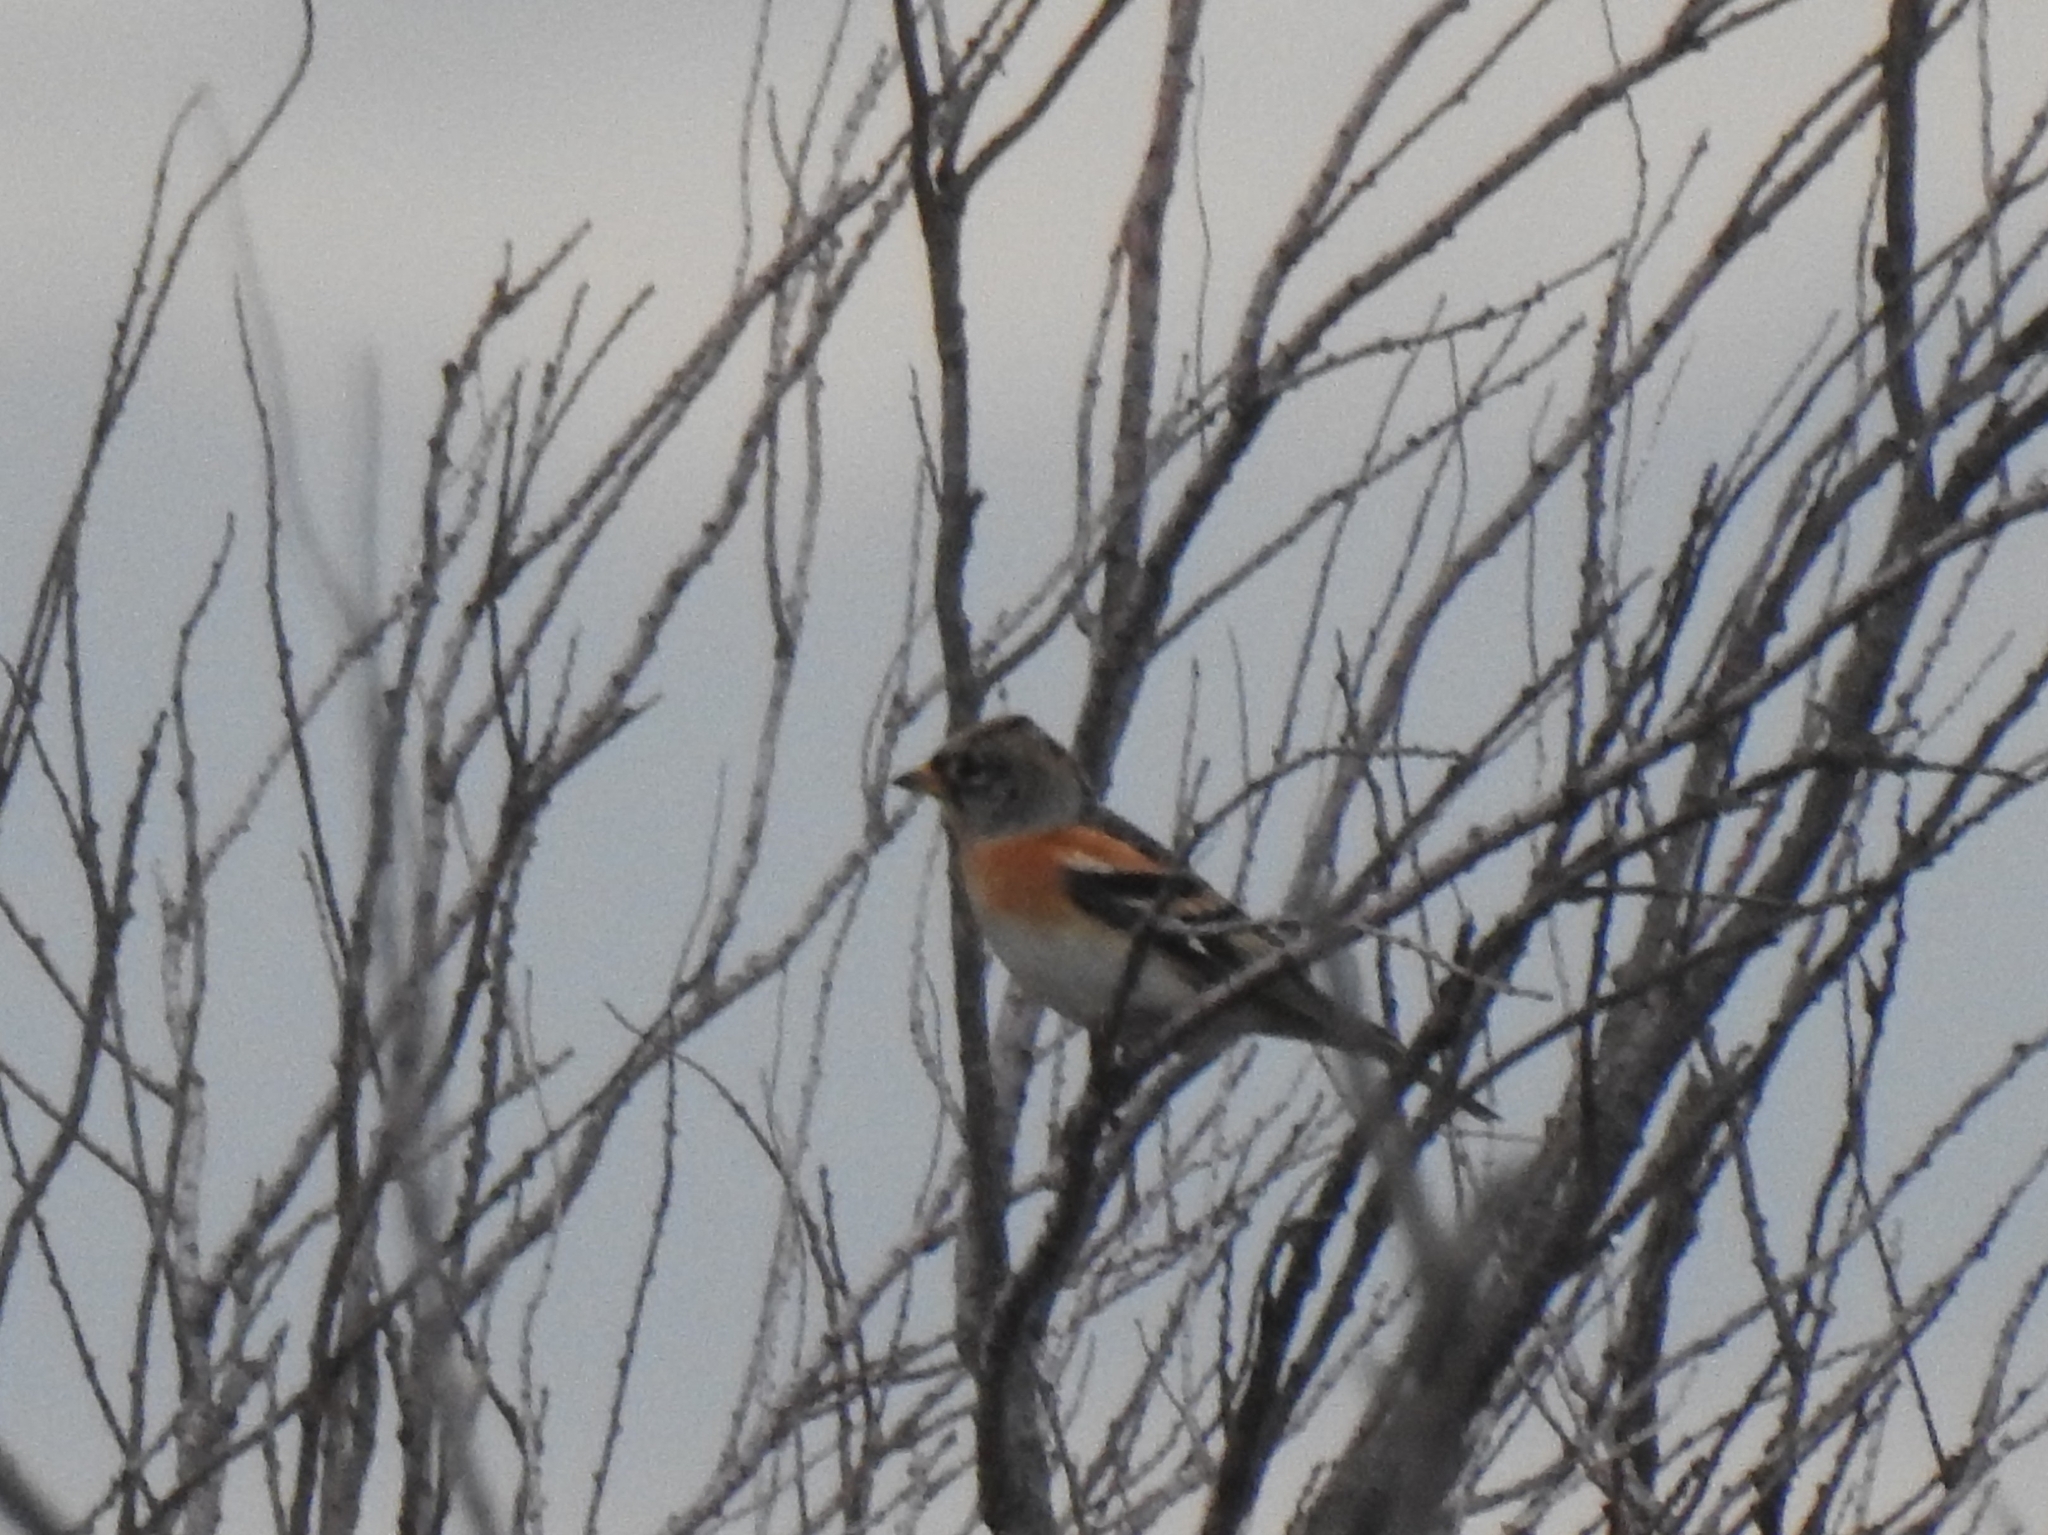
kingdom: Animalia
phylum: Chordata
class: Aves
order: Passeriformes
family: Fringillidae
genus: Fringilla
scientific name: Fringilla montifringilla
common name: Brambling
